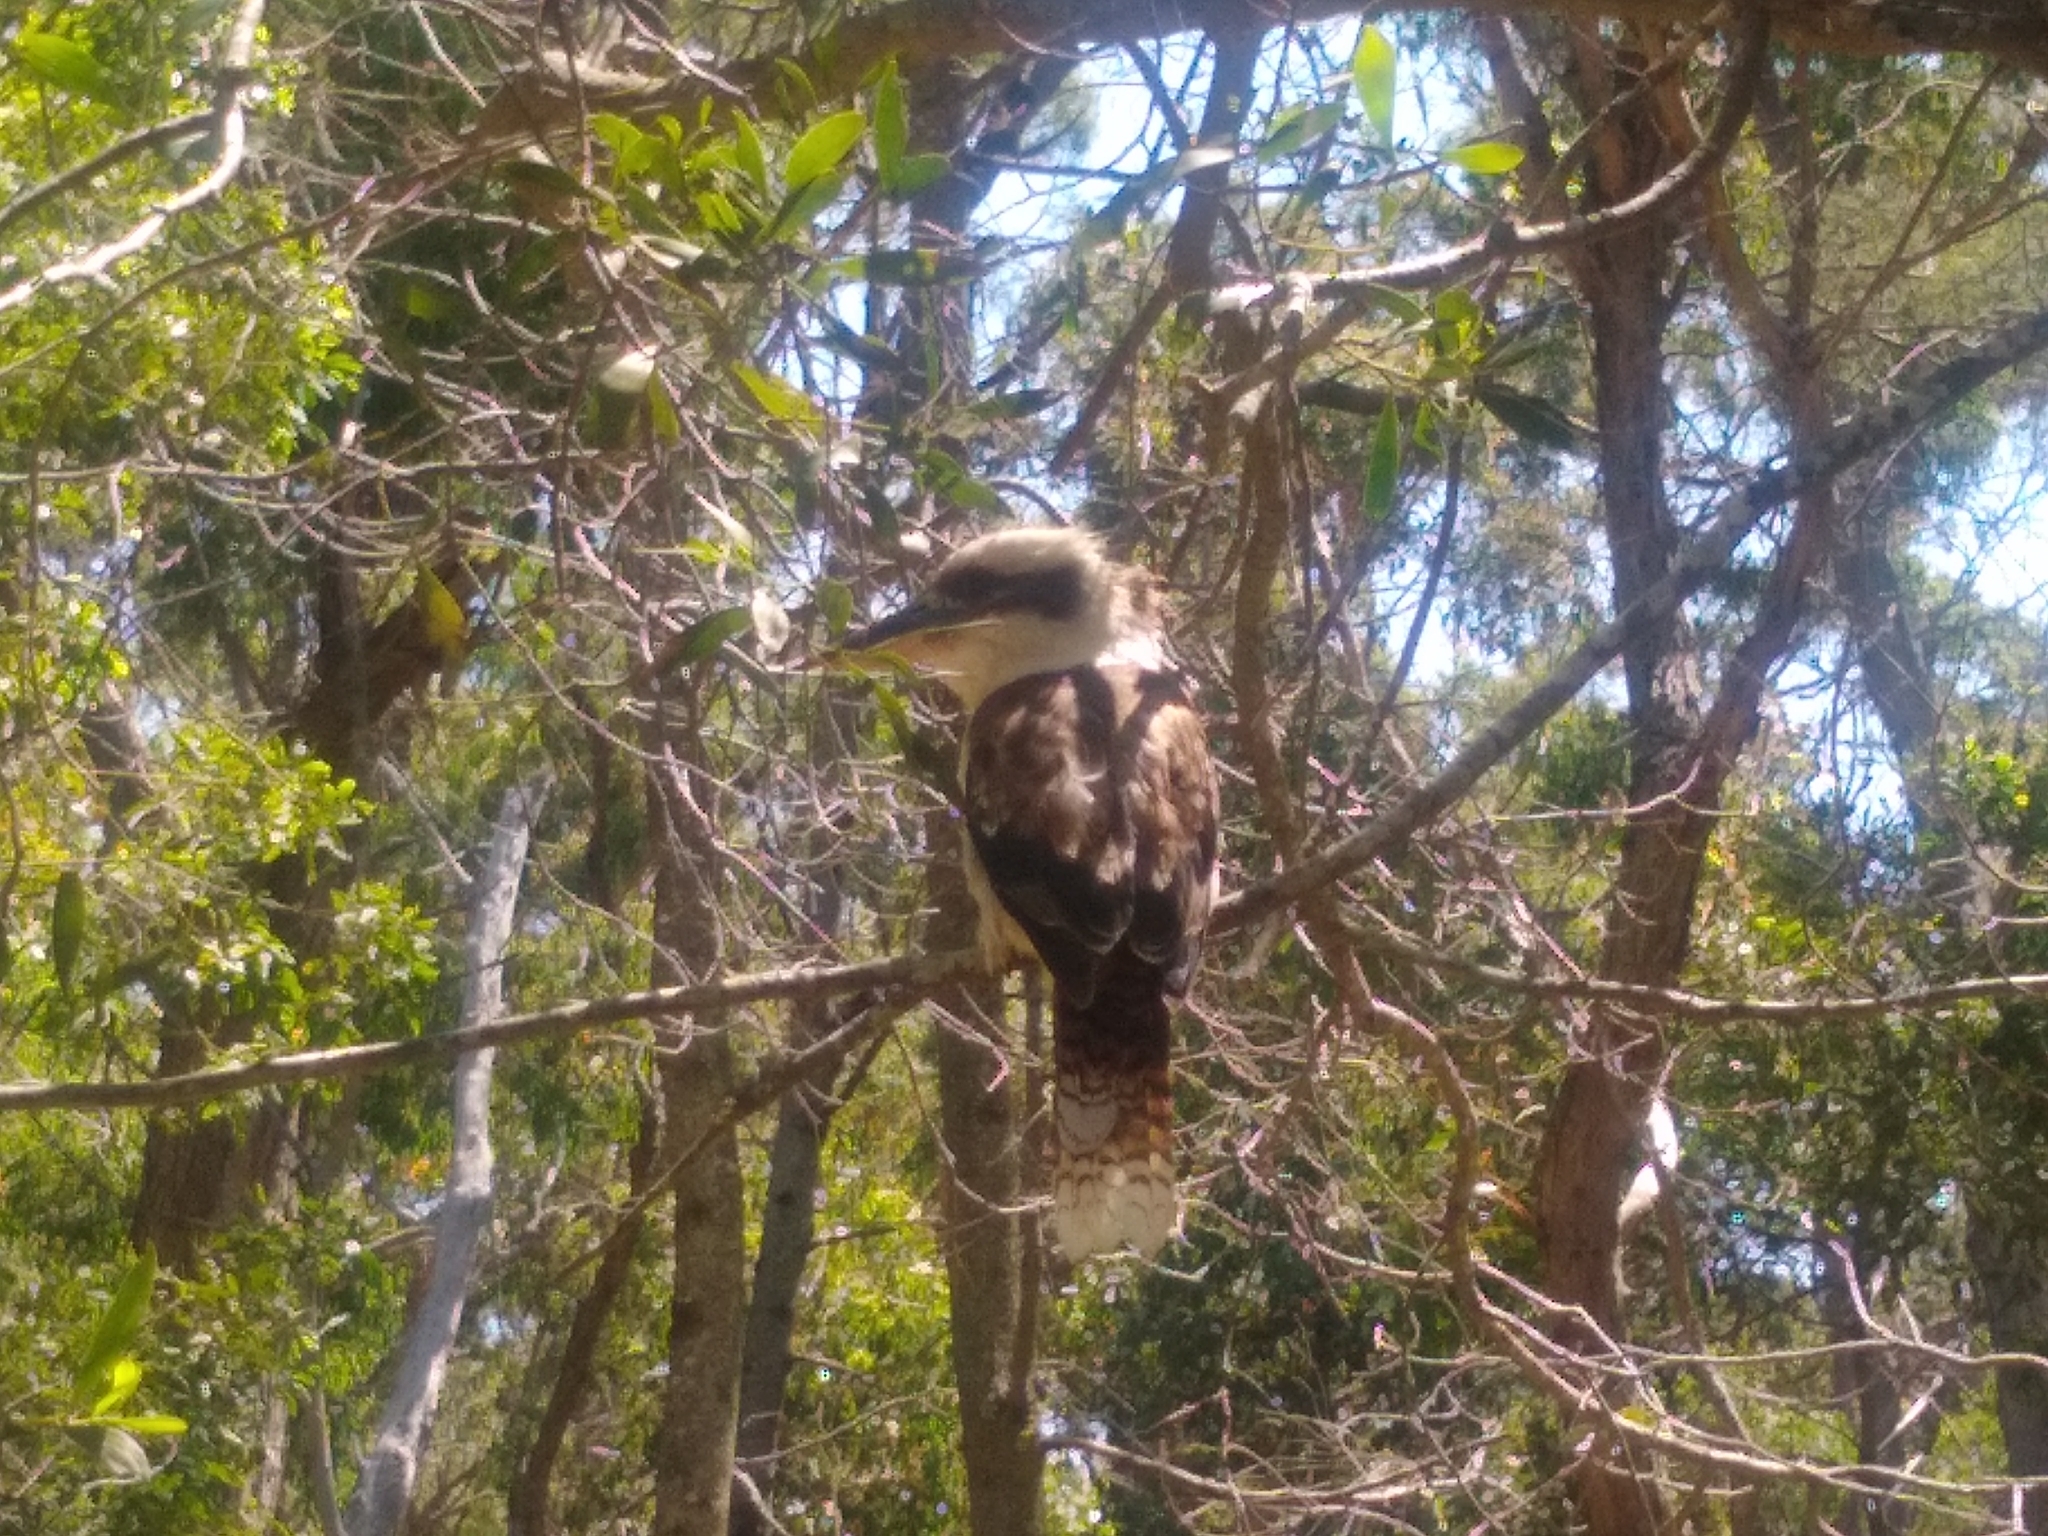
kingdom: Animalia
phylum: Chordata
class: Aves
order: Coraciiformes
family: Alcedinidae
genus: Dacelo
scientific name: Dacelo novaeguineae
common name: Laughing kookaburra
